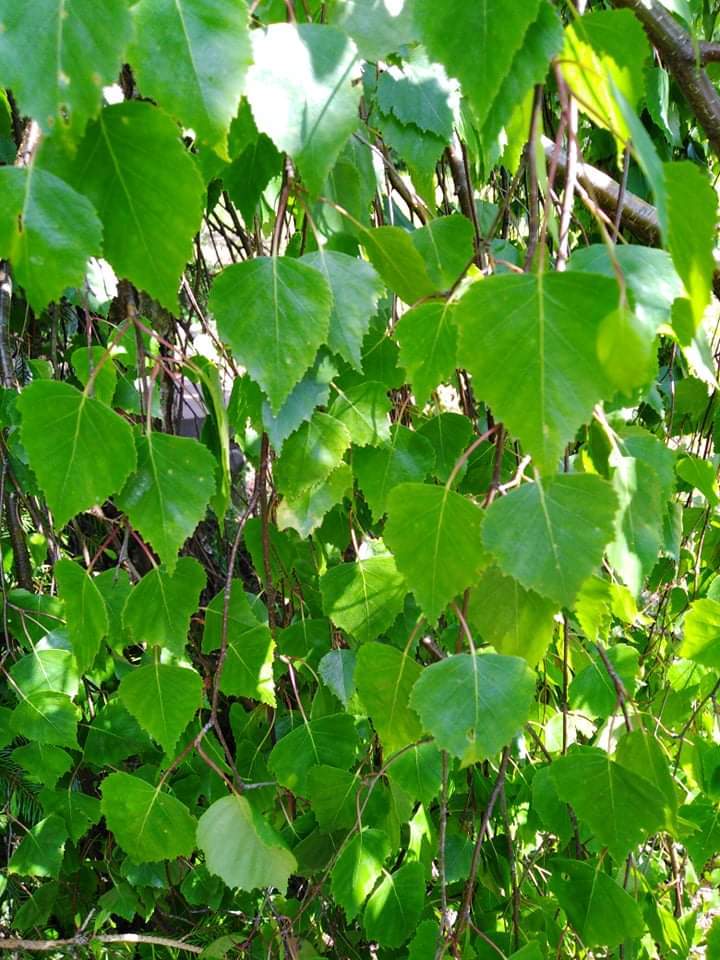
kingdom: Plantae
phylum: Tracheophyta
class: Magnoliopsida
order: Fagales
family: Betulaceae
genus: Betula
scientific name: Betula pendula
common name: Silver birch
